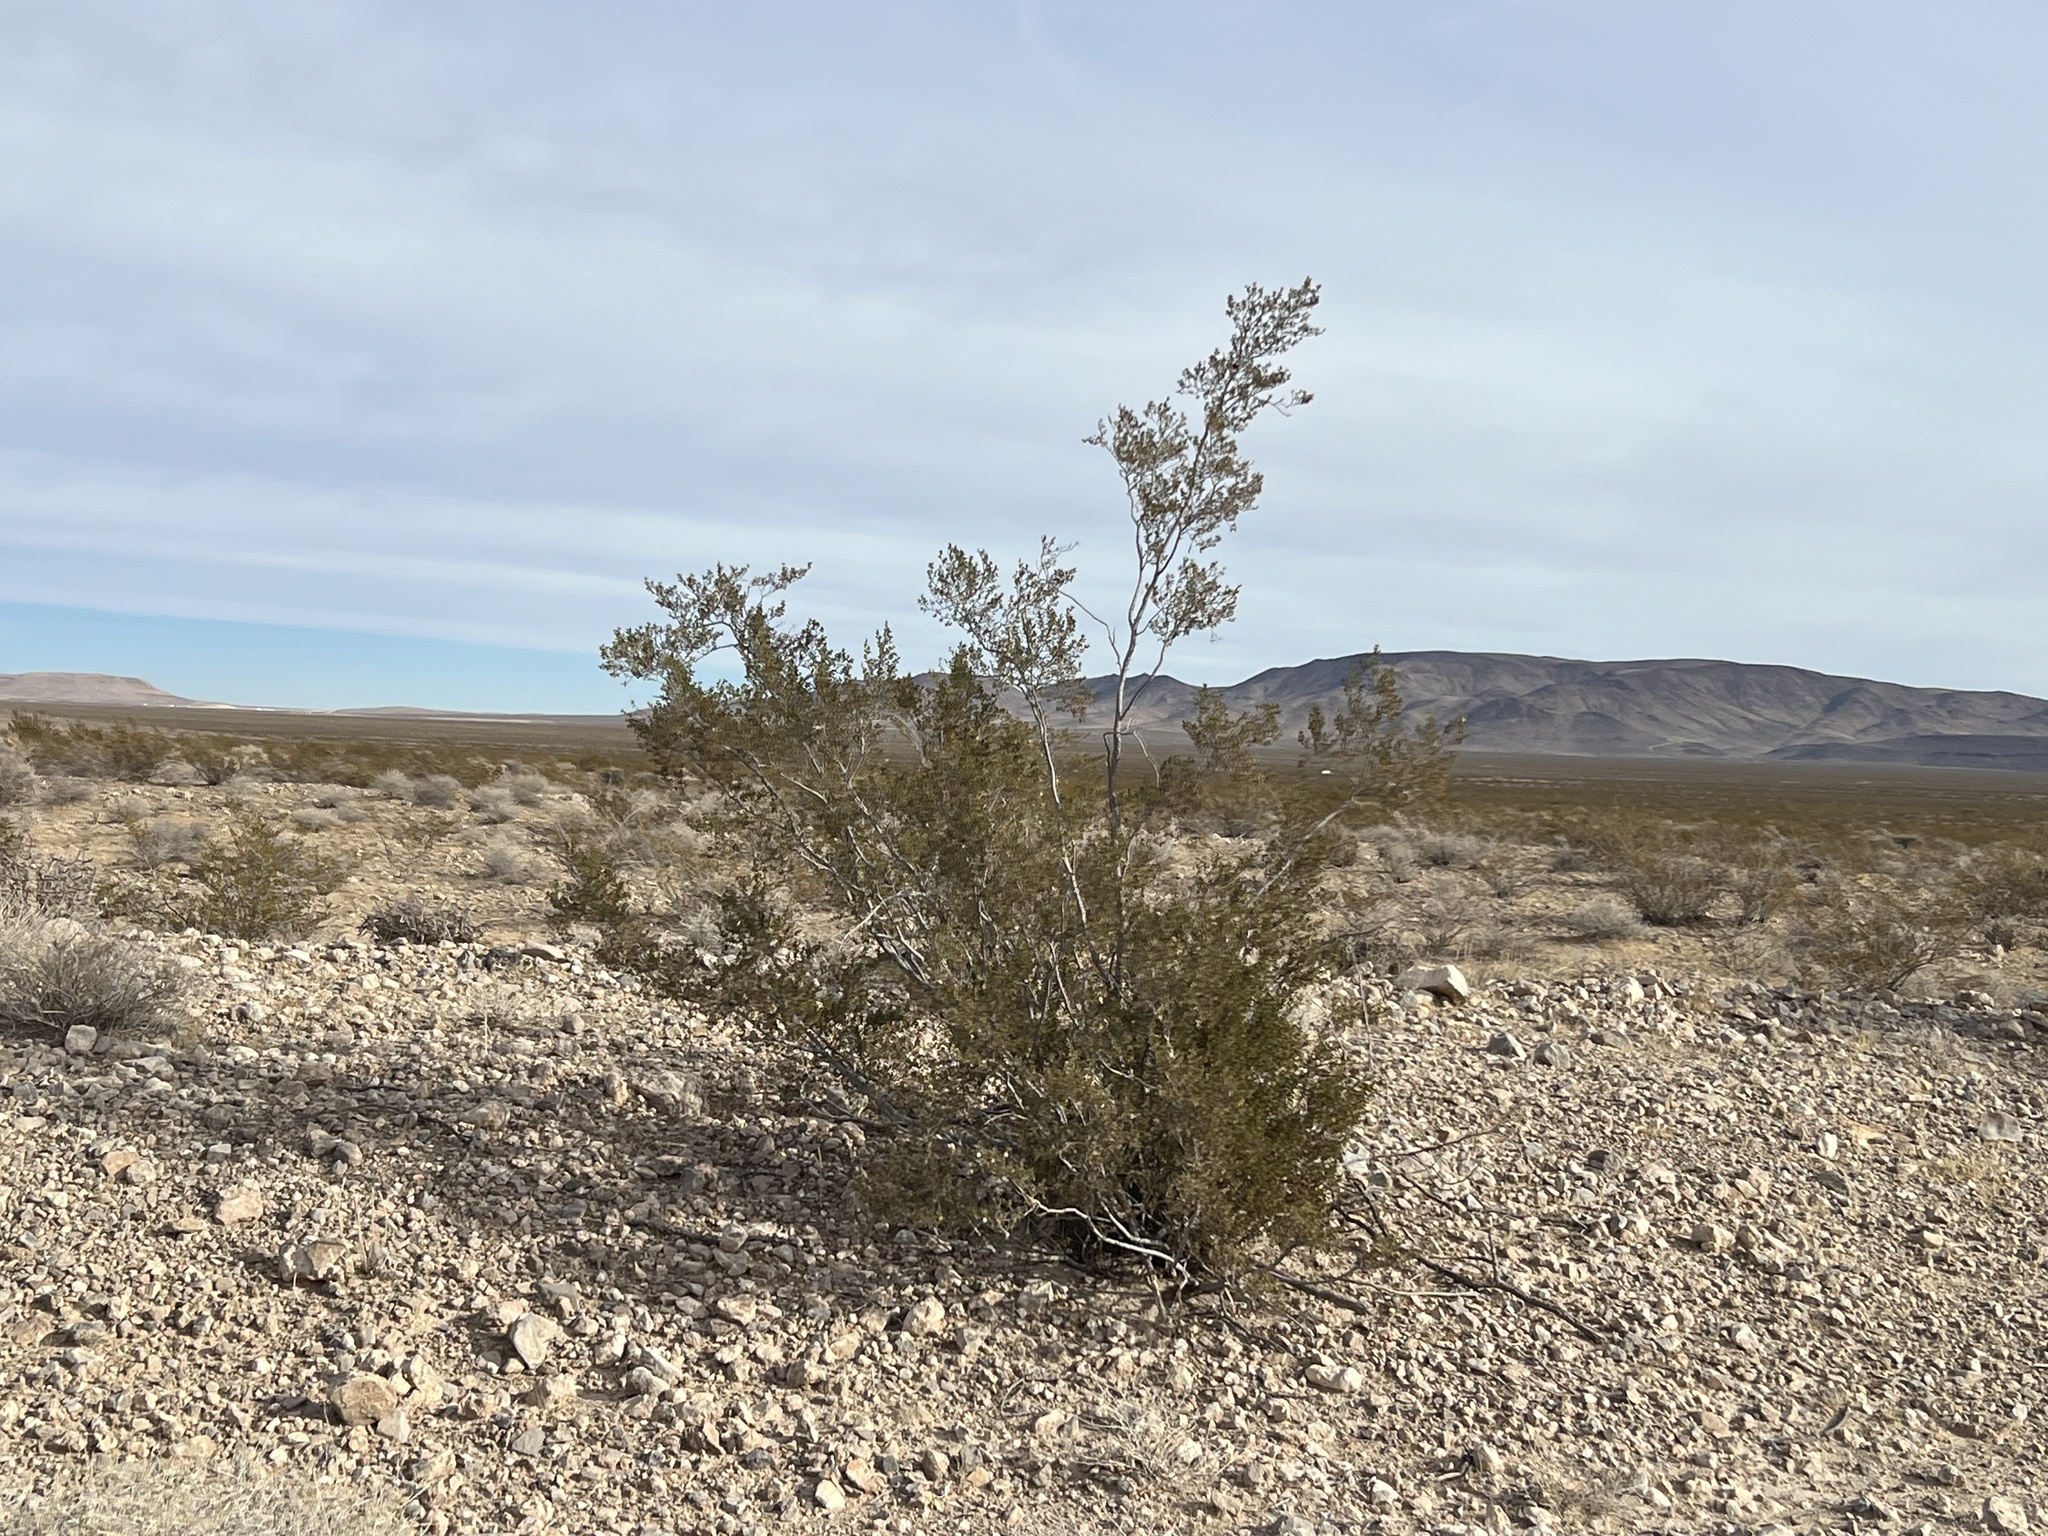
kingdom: Plantae
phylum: Tracheophyta
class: Magnoliopsida
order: Zygophyllales
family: Zygophyllaceae
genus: Larrea
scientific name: Larrea tridentata
